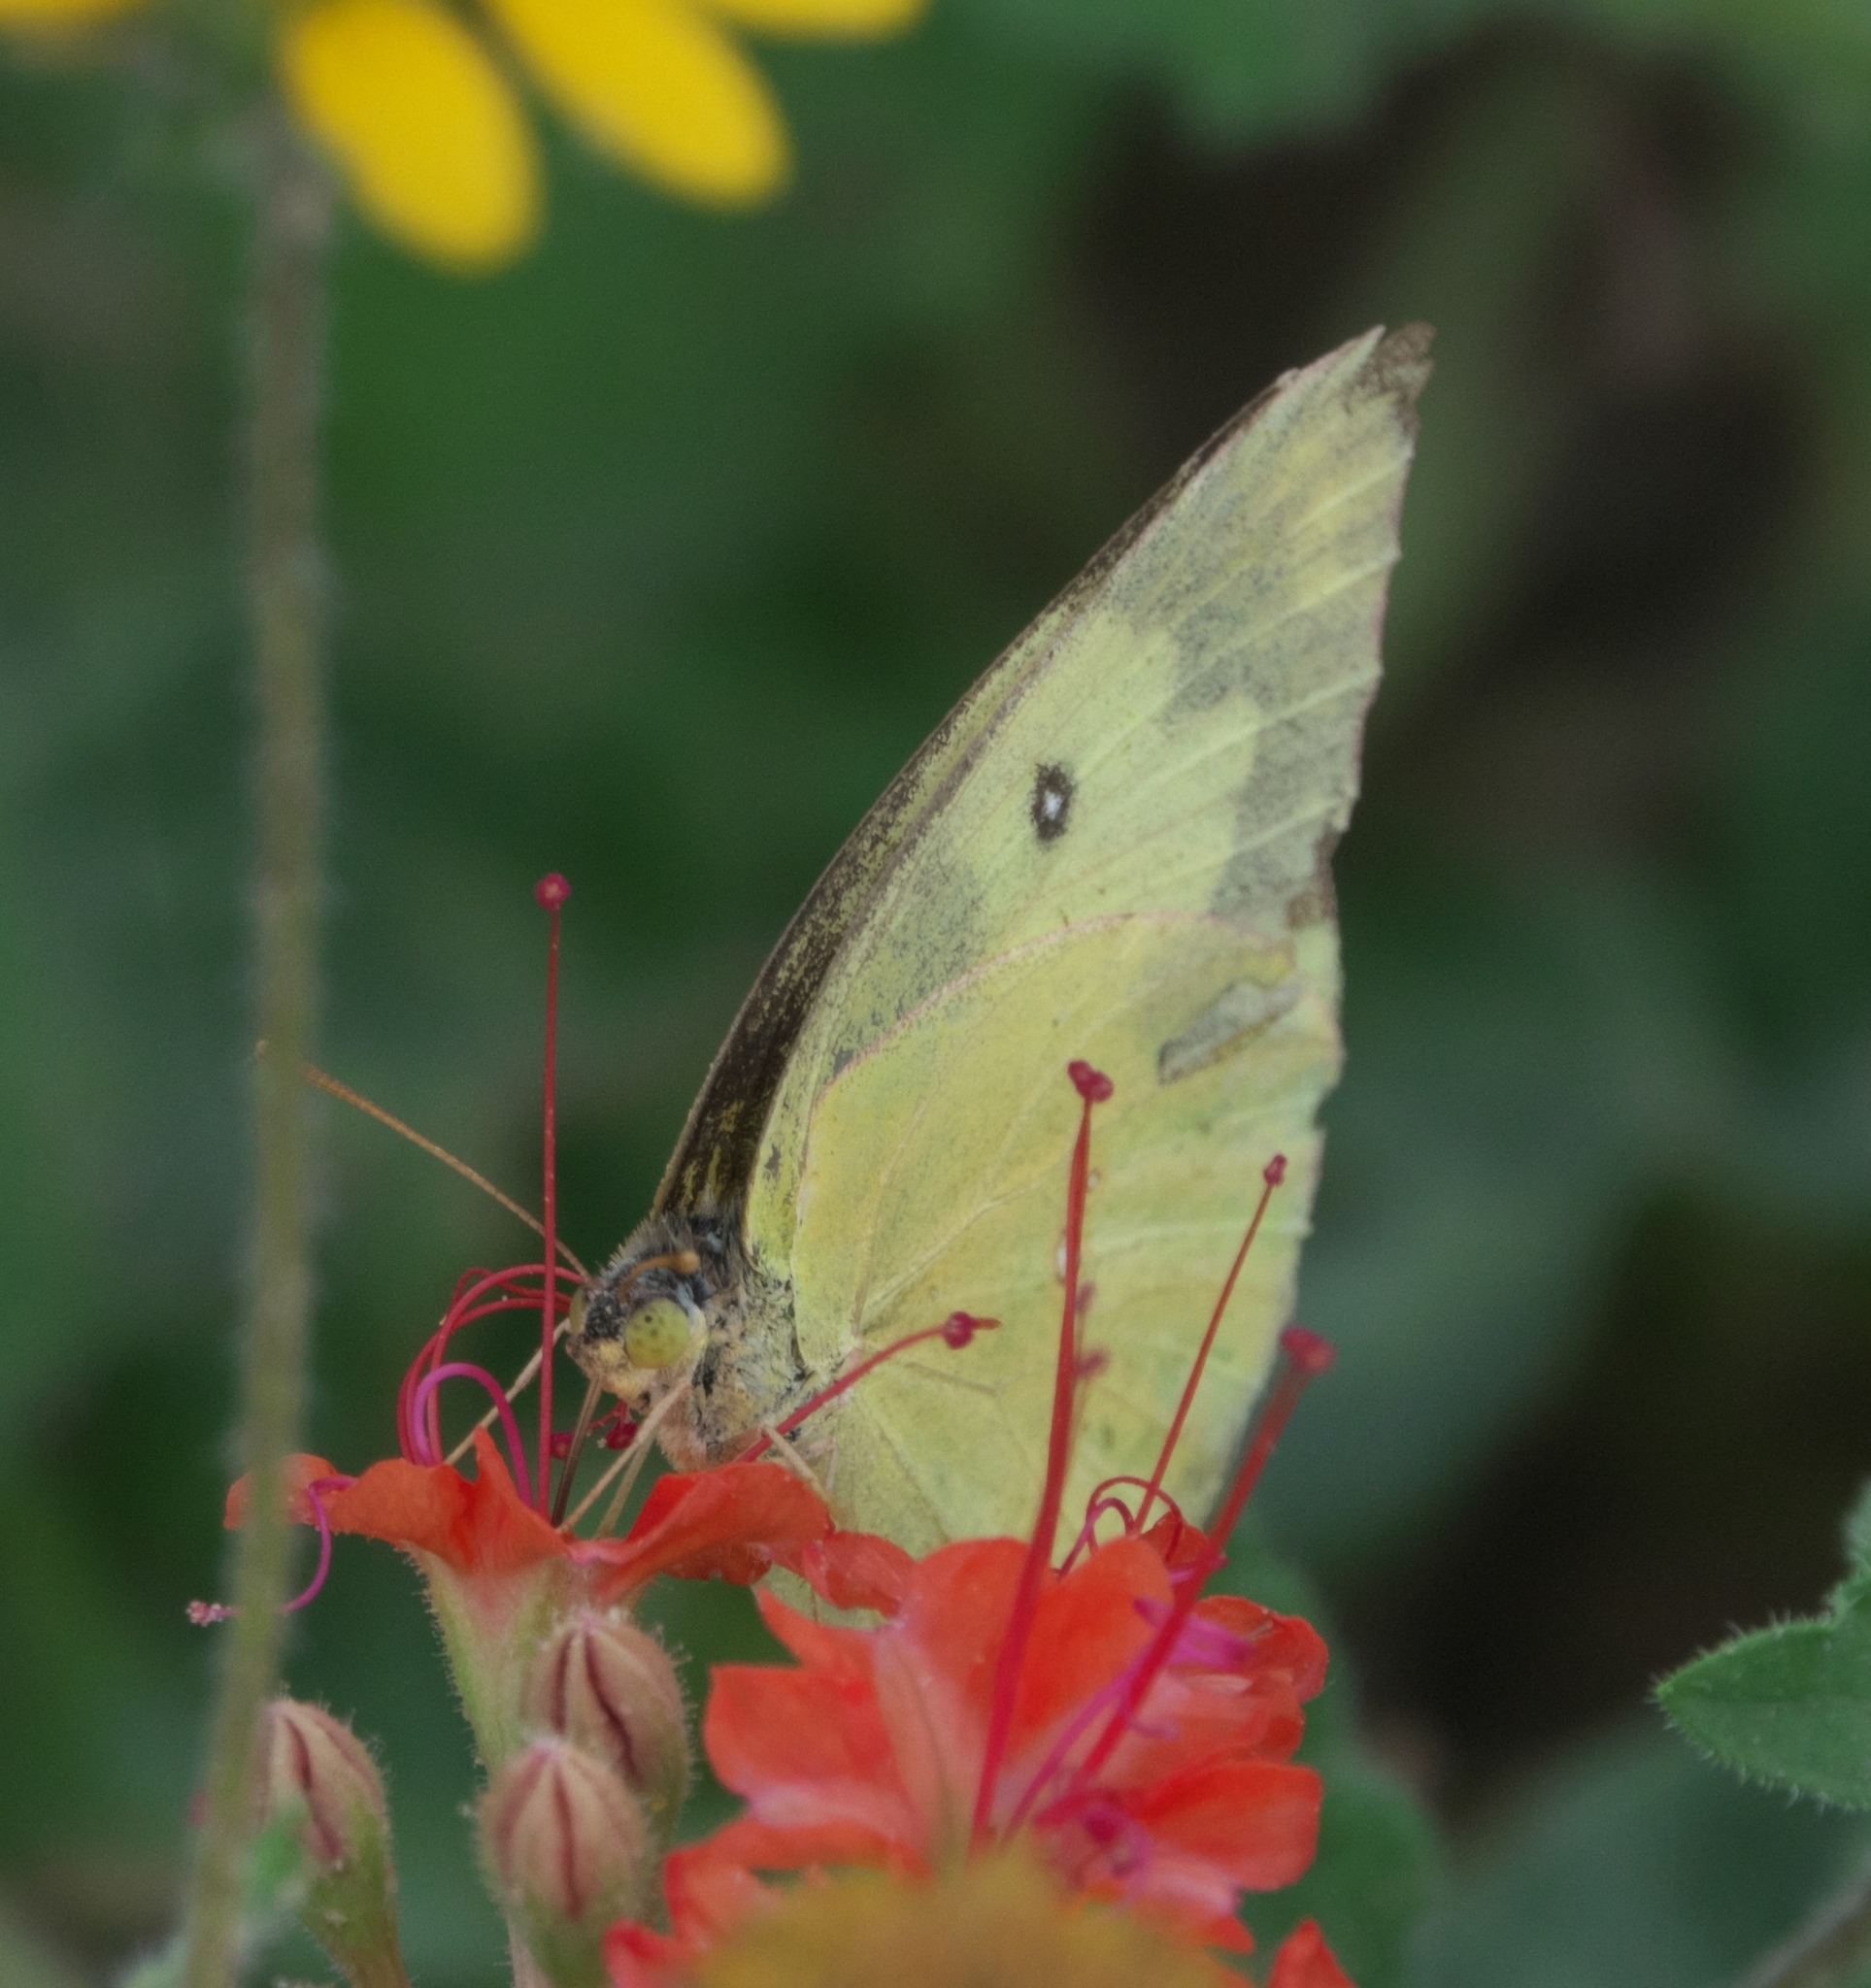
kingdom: Animalia
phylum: Arthropoda
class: Insecta
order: Lepidoptera
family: Pieridae
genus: Zerene
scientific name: Zerene cesonia
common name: Southern dogface
